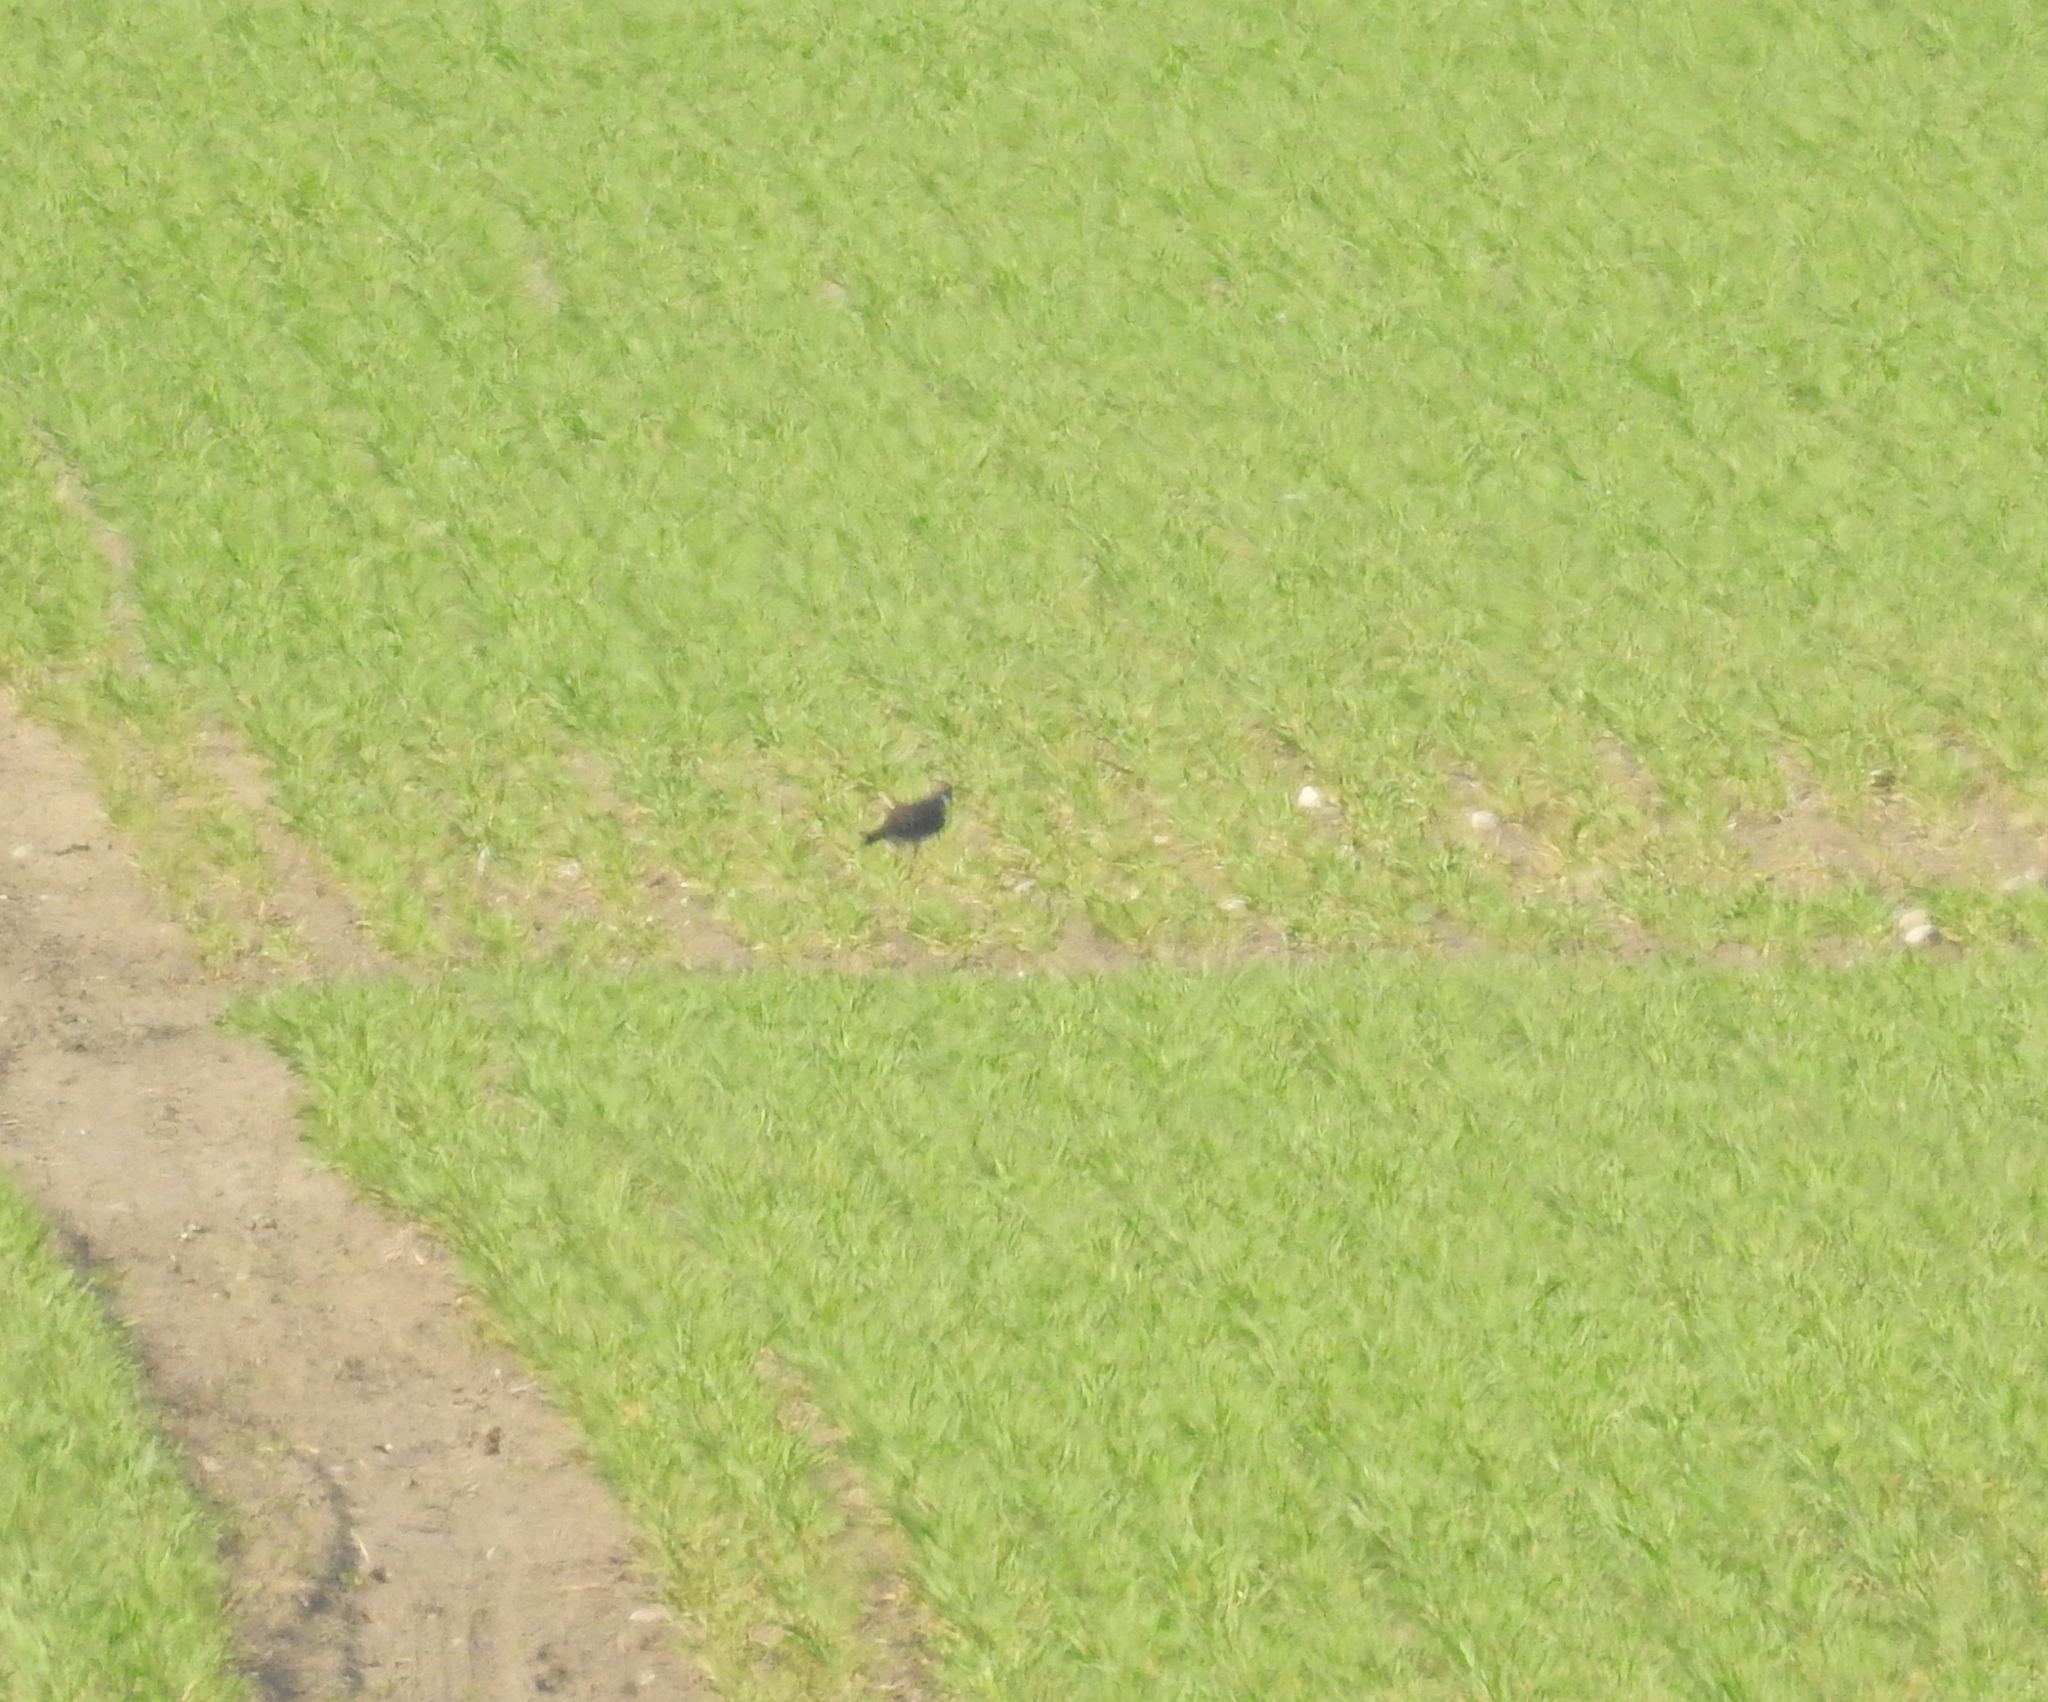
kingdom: Animalia
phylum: Chordata
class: Aves
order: Charadriiformes
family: Charadriidae
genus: Vanellus
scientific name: Vanellus vanellus
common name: Northern lapwing
